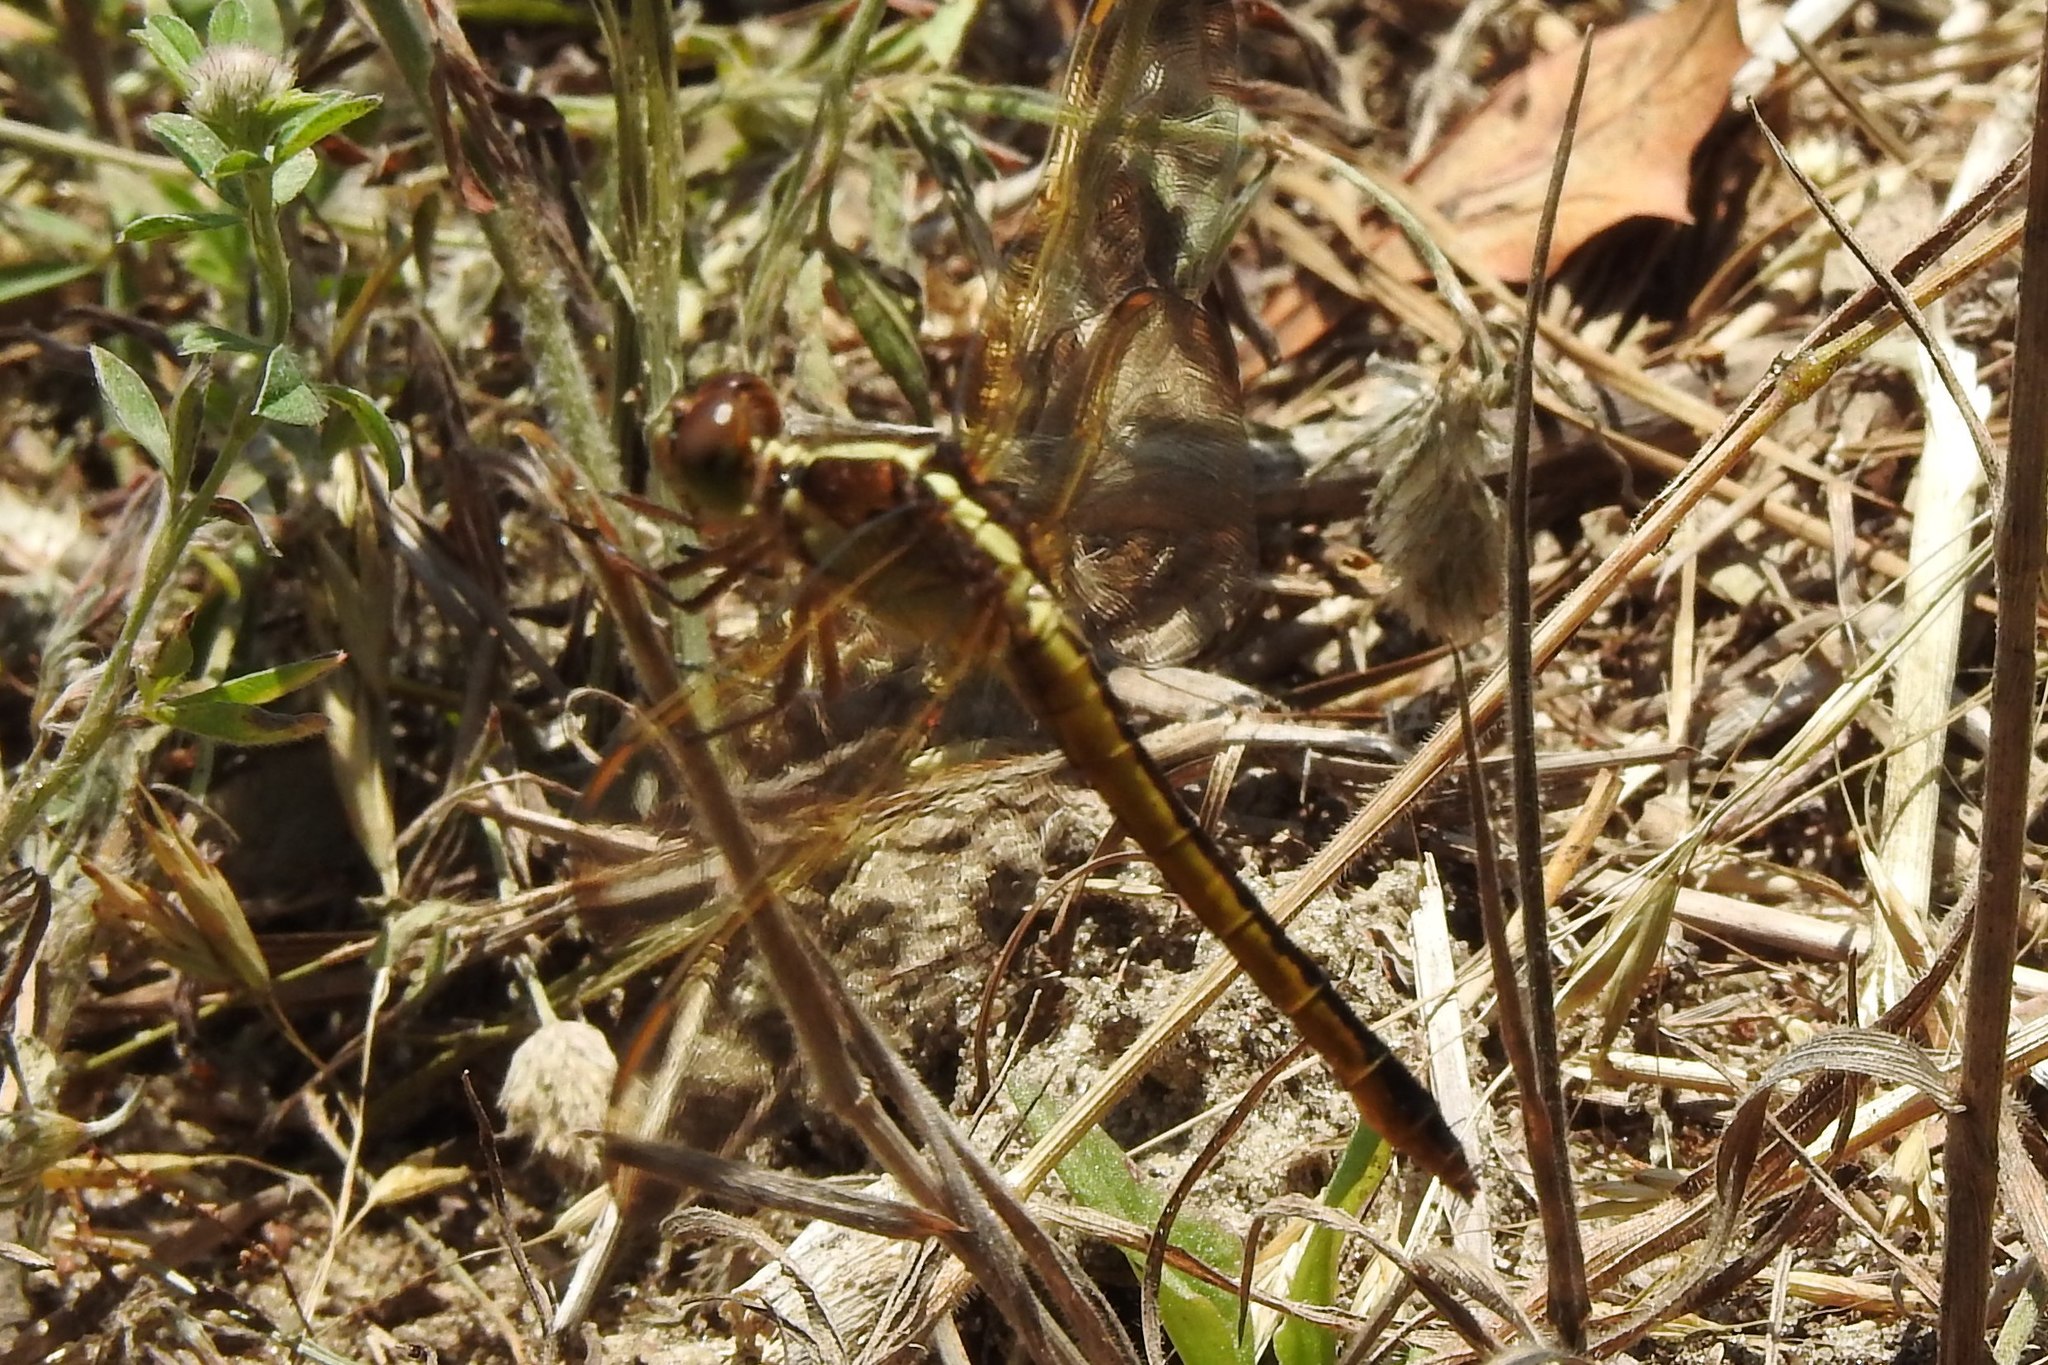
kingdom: Animalia
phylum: Arthropoda
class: Insecta
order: Odonata
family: Libellulidae
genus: Libellula
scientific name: Libellula needhami
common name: Needham's skimmer
